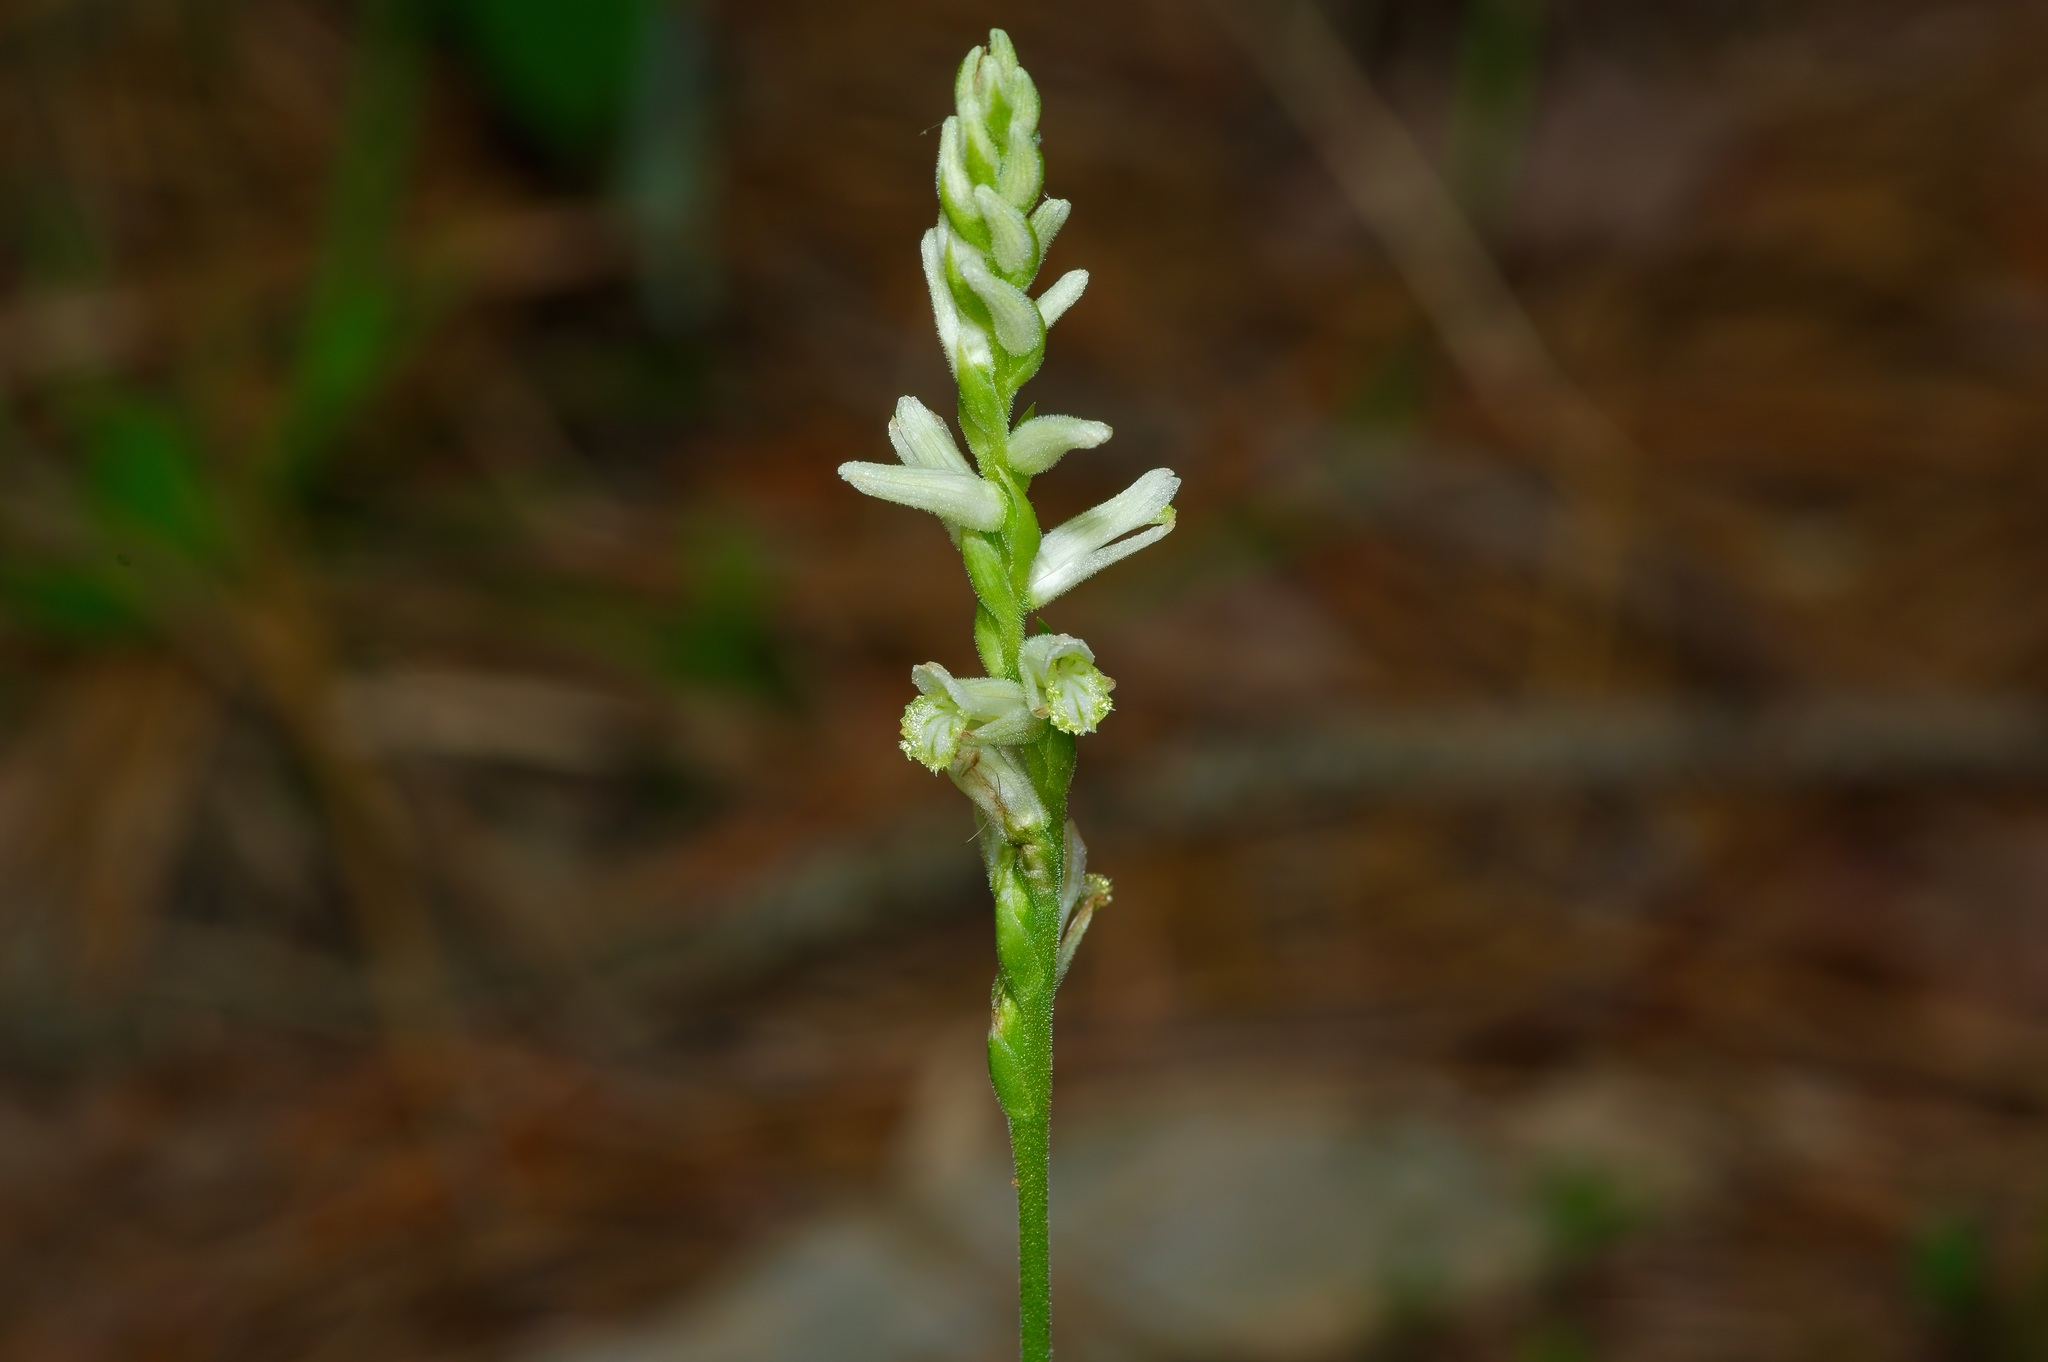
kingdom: Plantae
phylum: Tracheophyta
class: Liliopsida
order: Asparagales
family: Orchidaceae
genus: Spiranthes
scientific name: Spiranthes praecox
